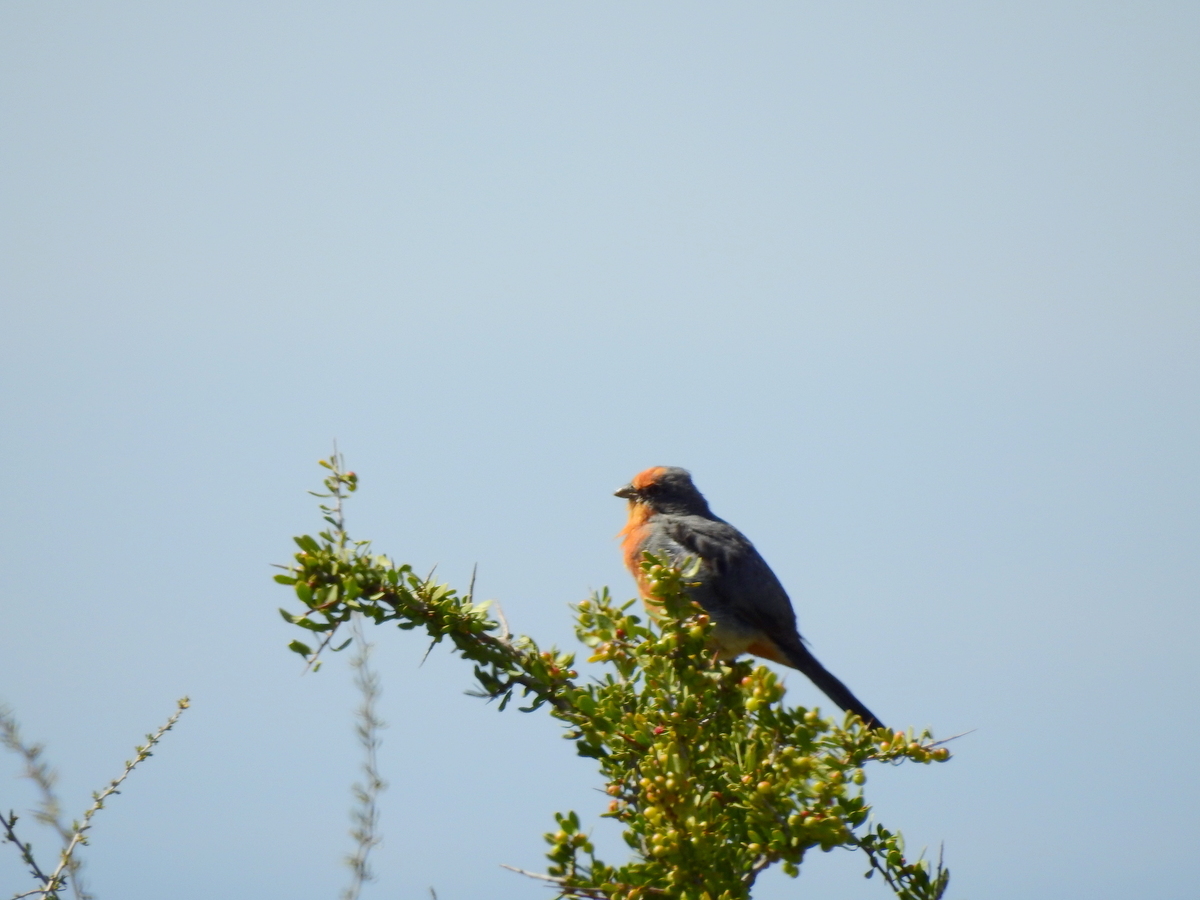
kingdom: Animalia
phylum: Chordata
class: Aves
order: Passeriformes
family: Cotingidae
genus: Phytotoma
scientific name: Phytotoma rutila
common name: White-tipped plantcutter
